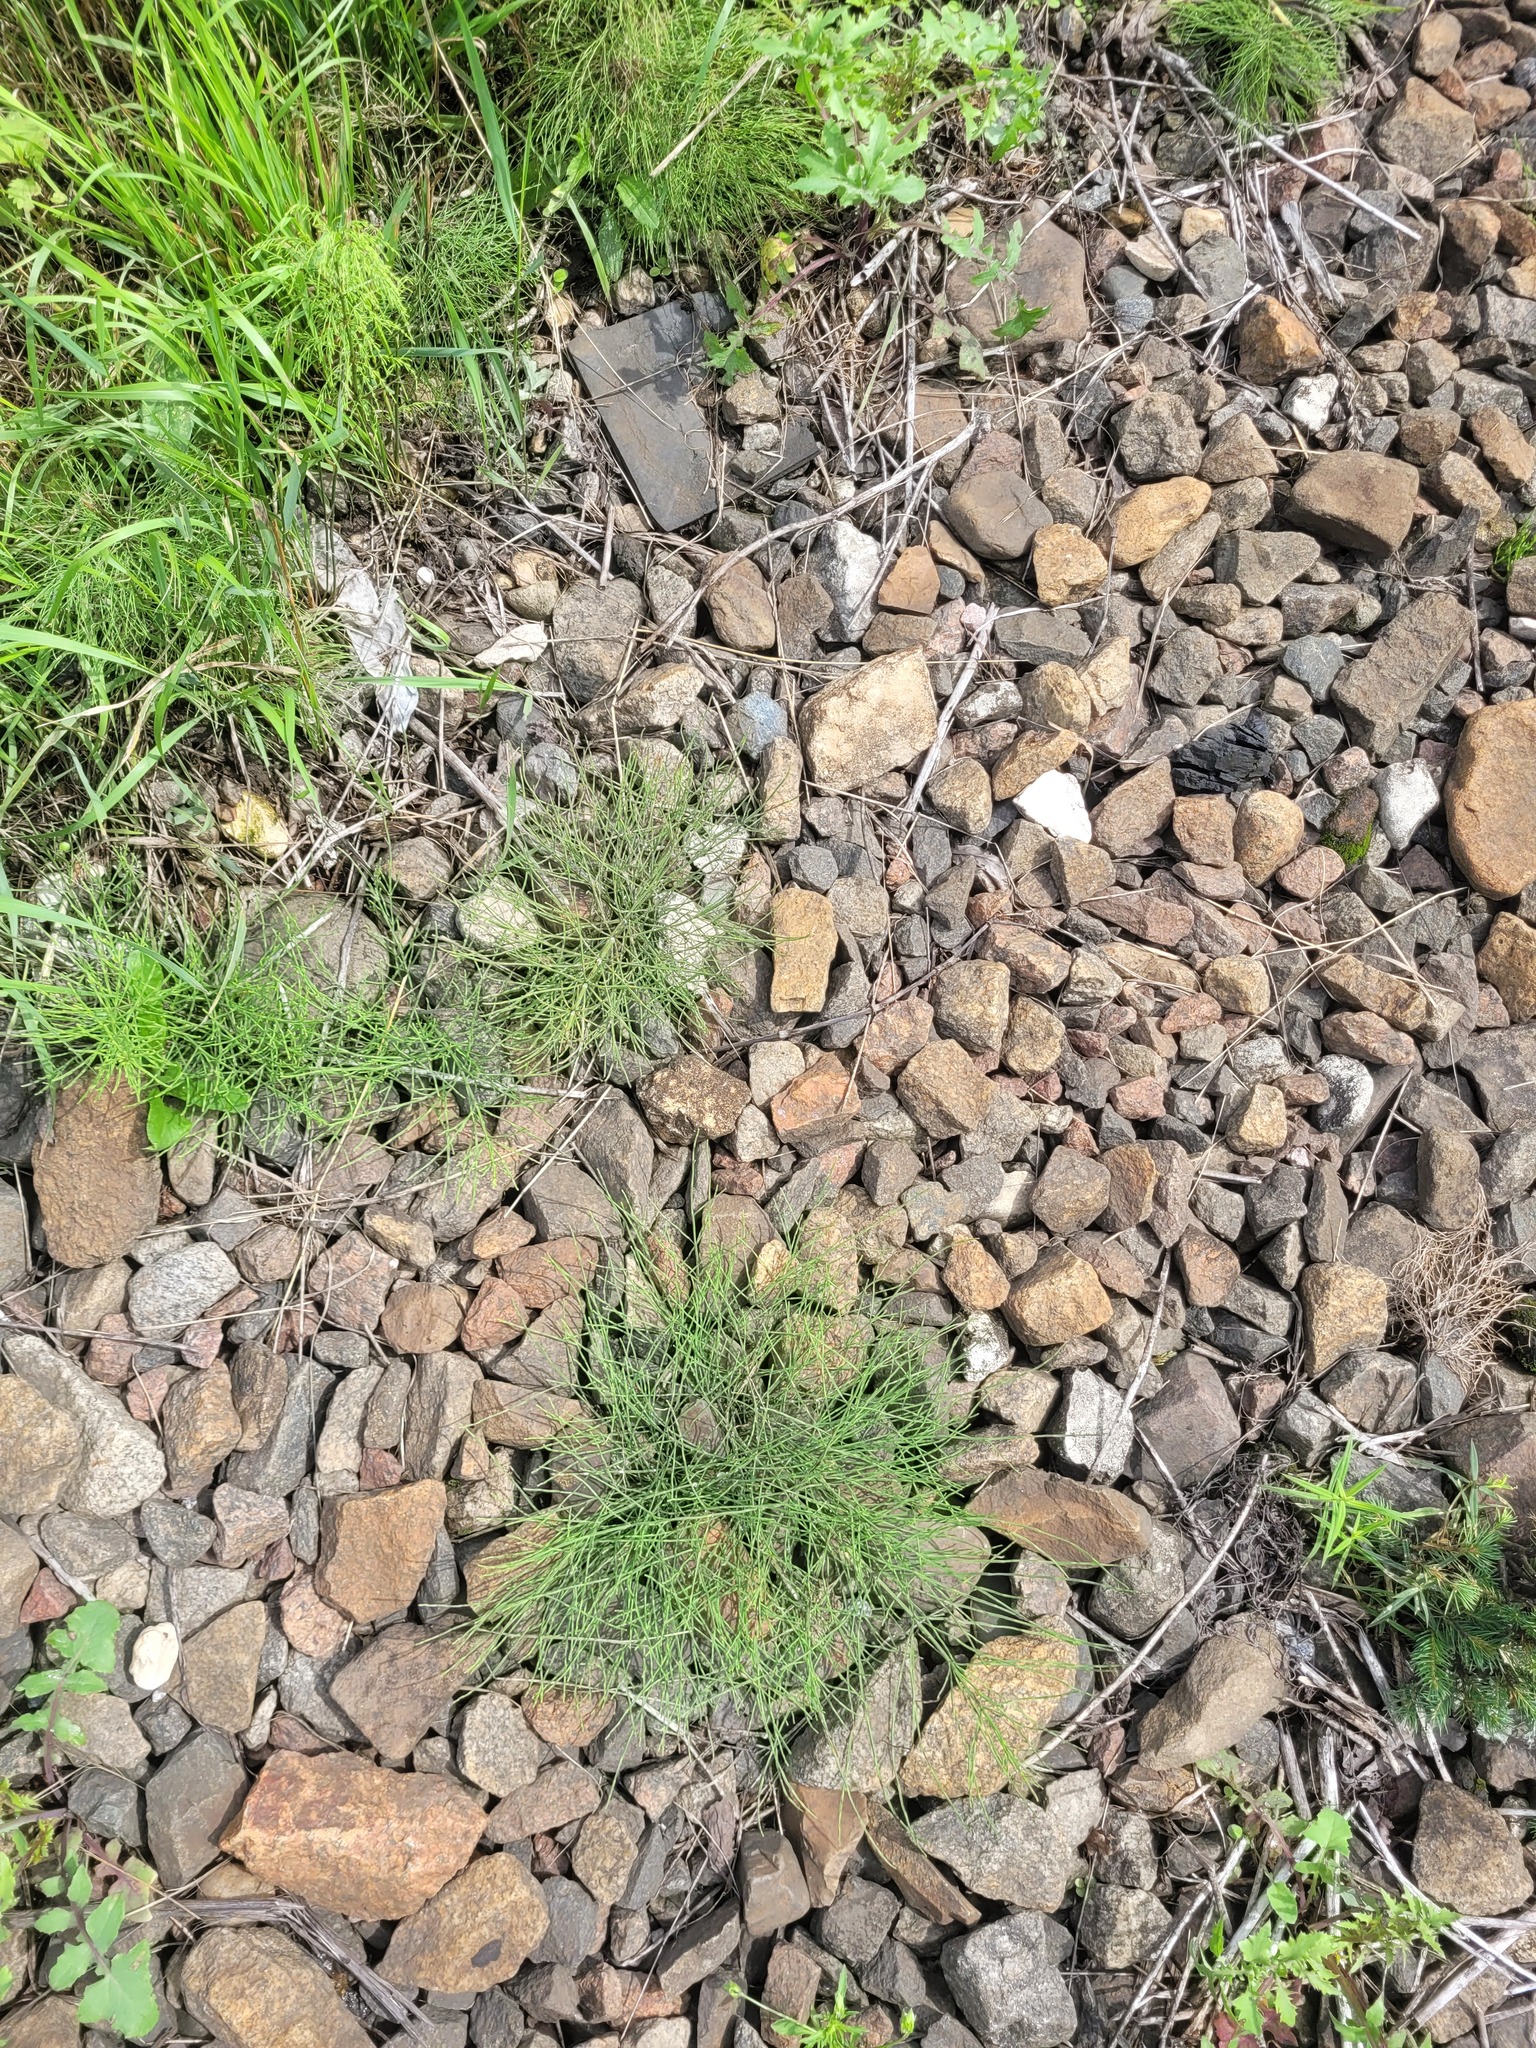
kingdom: Plantae
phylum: Tracheophyta
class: Polypodiopsida
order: Equisetales
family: Equisetaceae
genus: Equisetum
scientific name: Equisetum arvense
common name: Field horsetail
